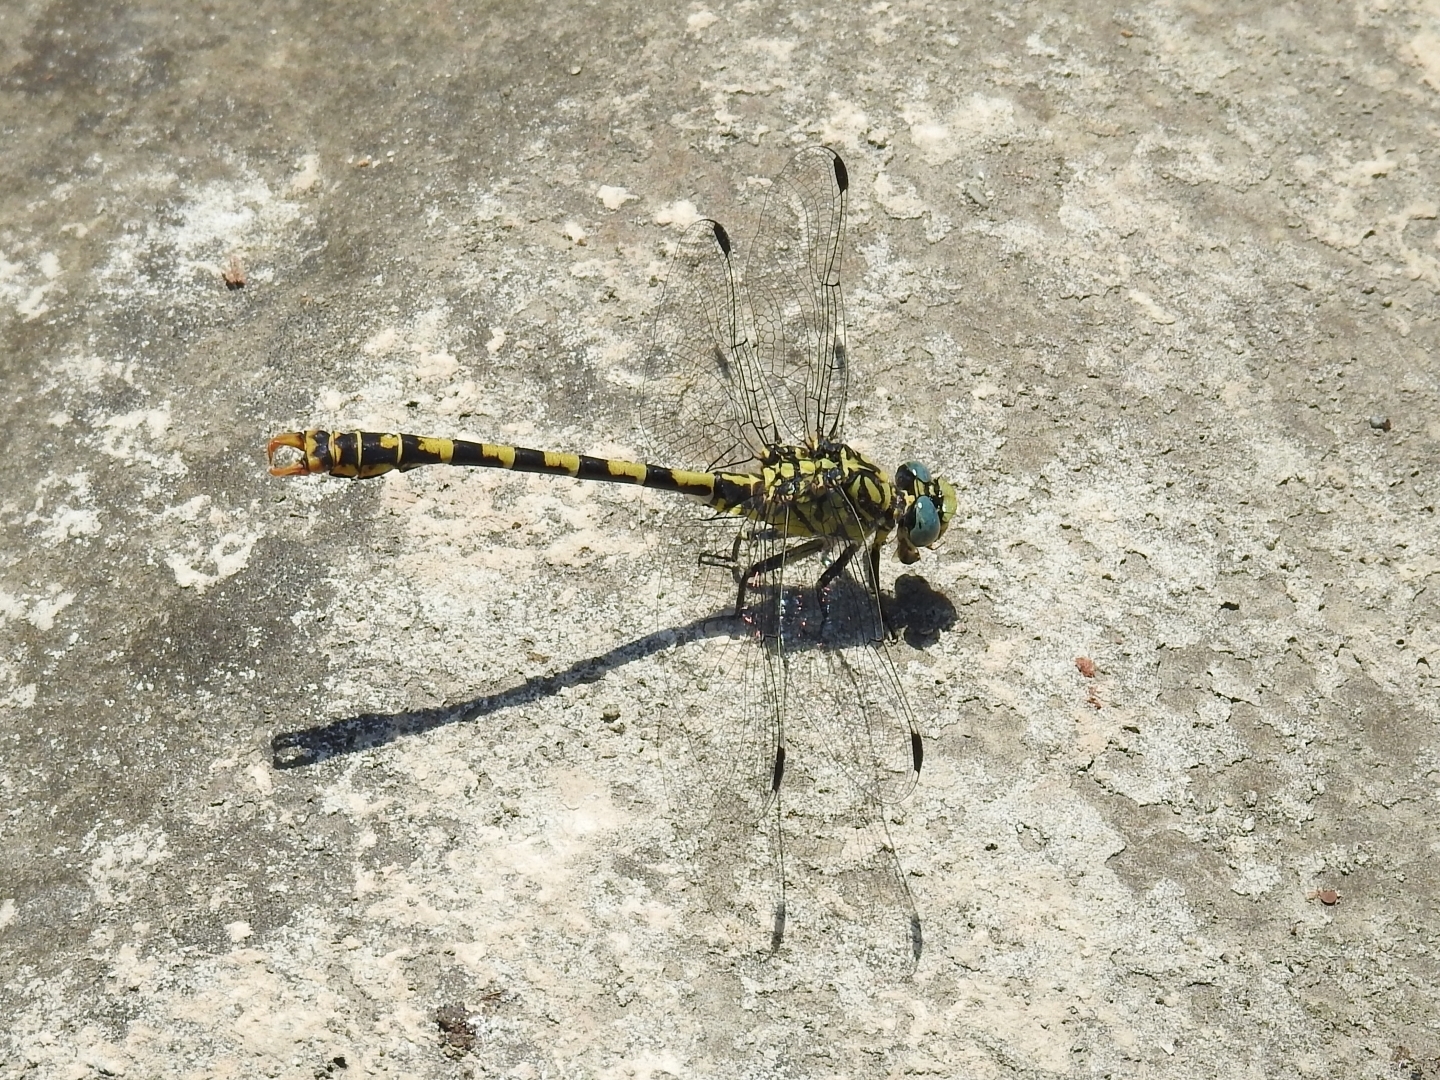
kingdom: Animalia
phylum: Arthropoda
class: Insecta
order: Odonata
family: Gomphidae
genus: Onychogomphus
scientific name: Onychogomphus forcipatus
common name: Small pincertail
